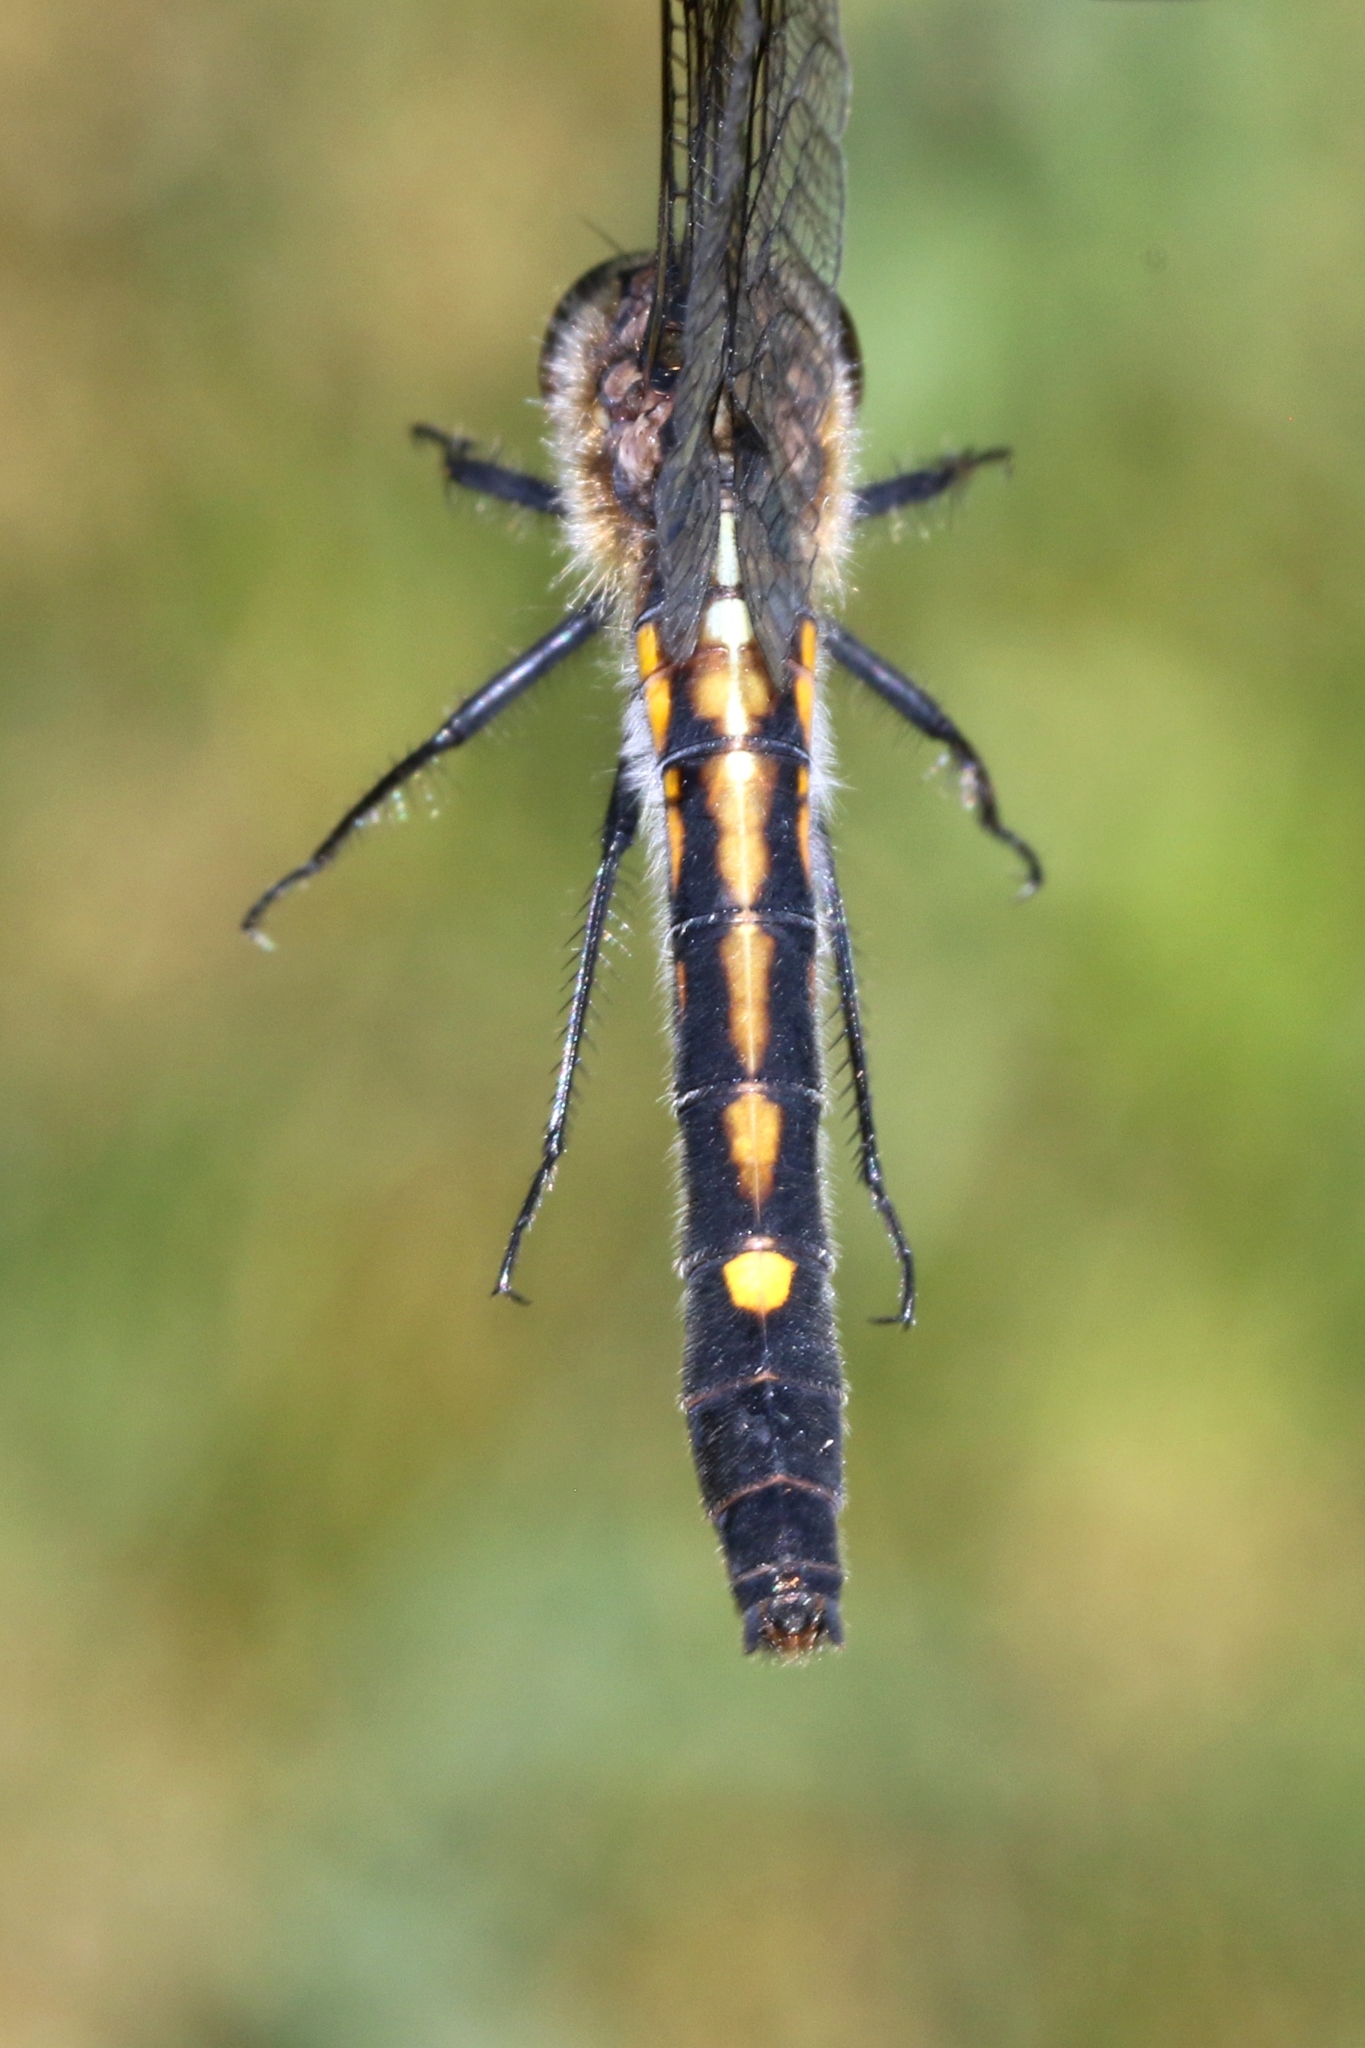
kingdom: Animalia
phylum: Arthropoda
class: Insecta
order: Odonata
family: Libellulidae
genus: Leucorrhinia
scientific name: Leucorrhinia intacta
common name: Dot-tailed whiteface
